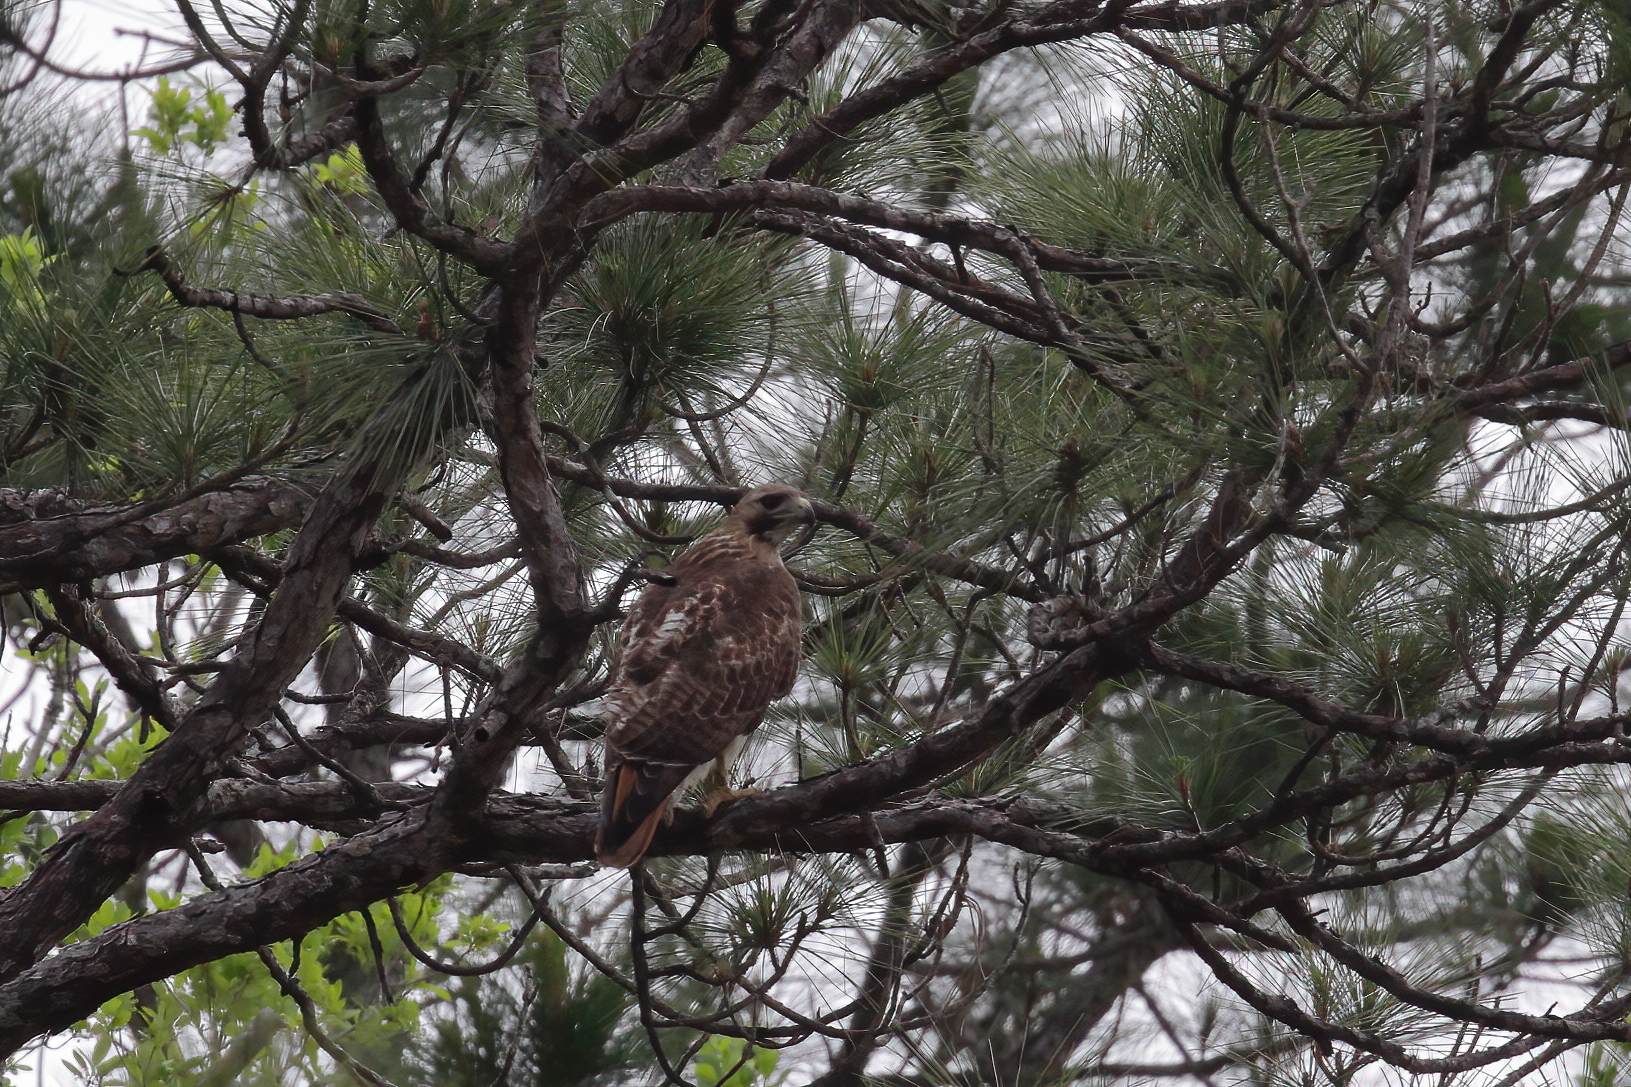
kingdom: Animalia
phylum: Chordata
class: Aves
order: Accipitriformes
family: Accipitridae
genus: Buteo
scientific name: Buteo jamaicensis
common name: Red-tailed hawk
